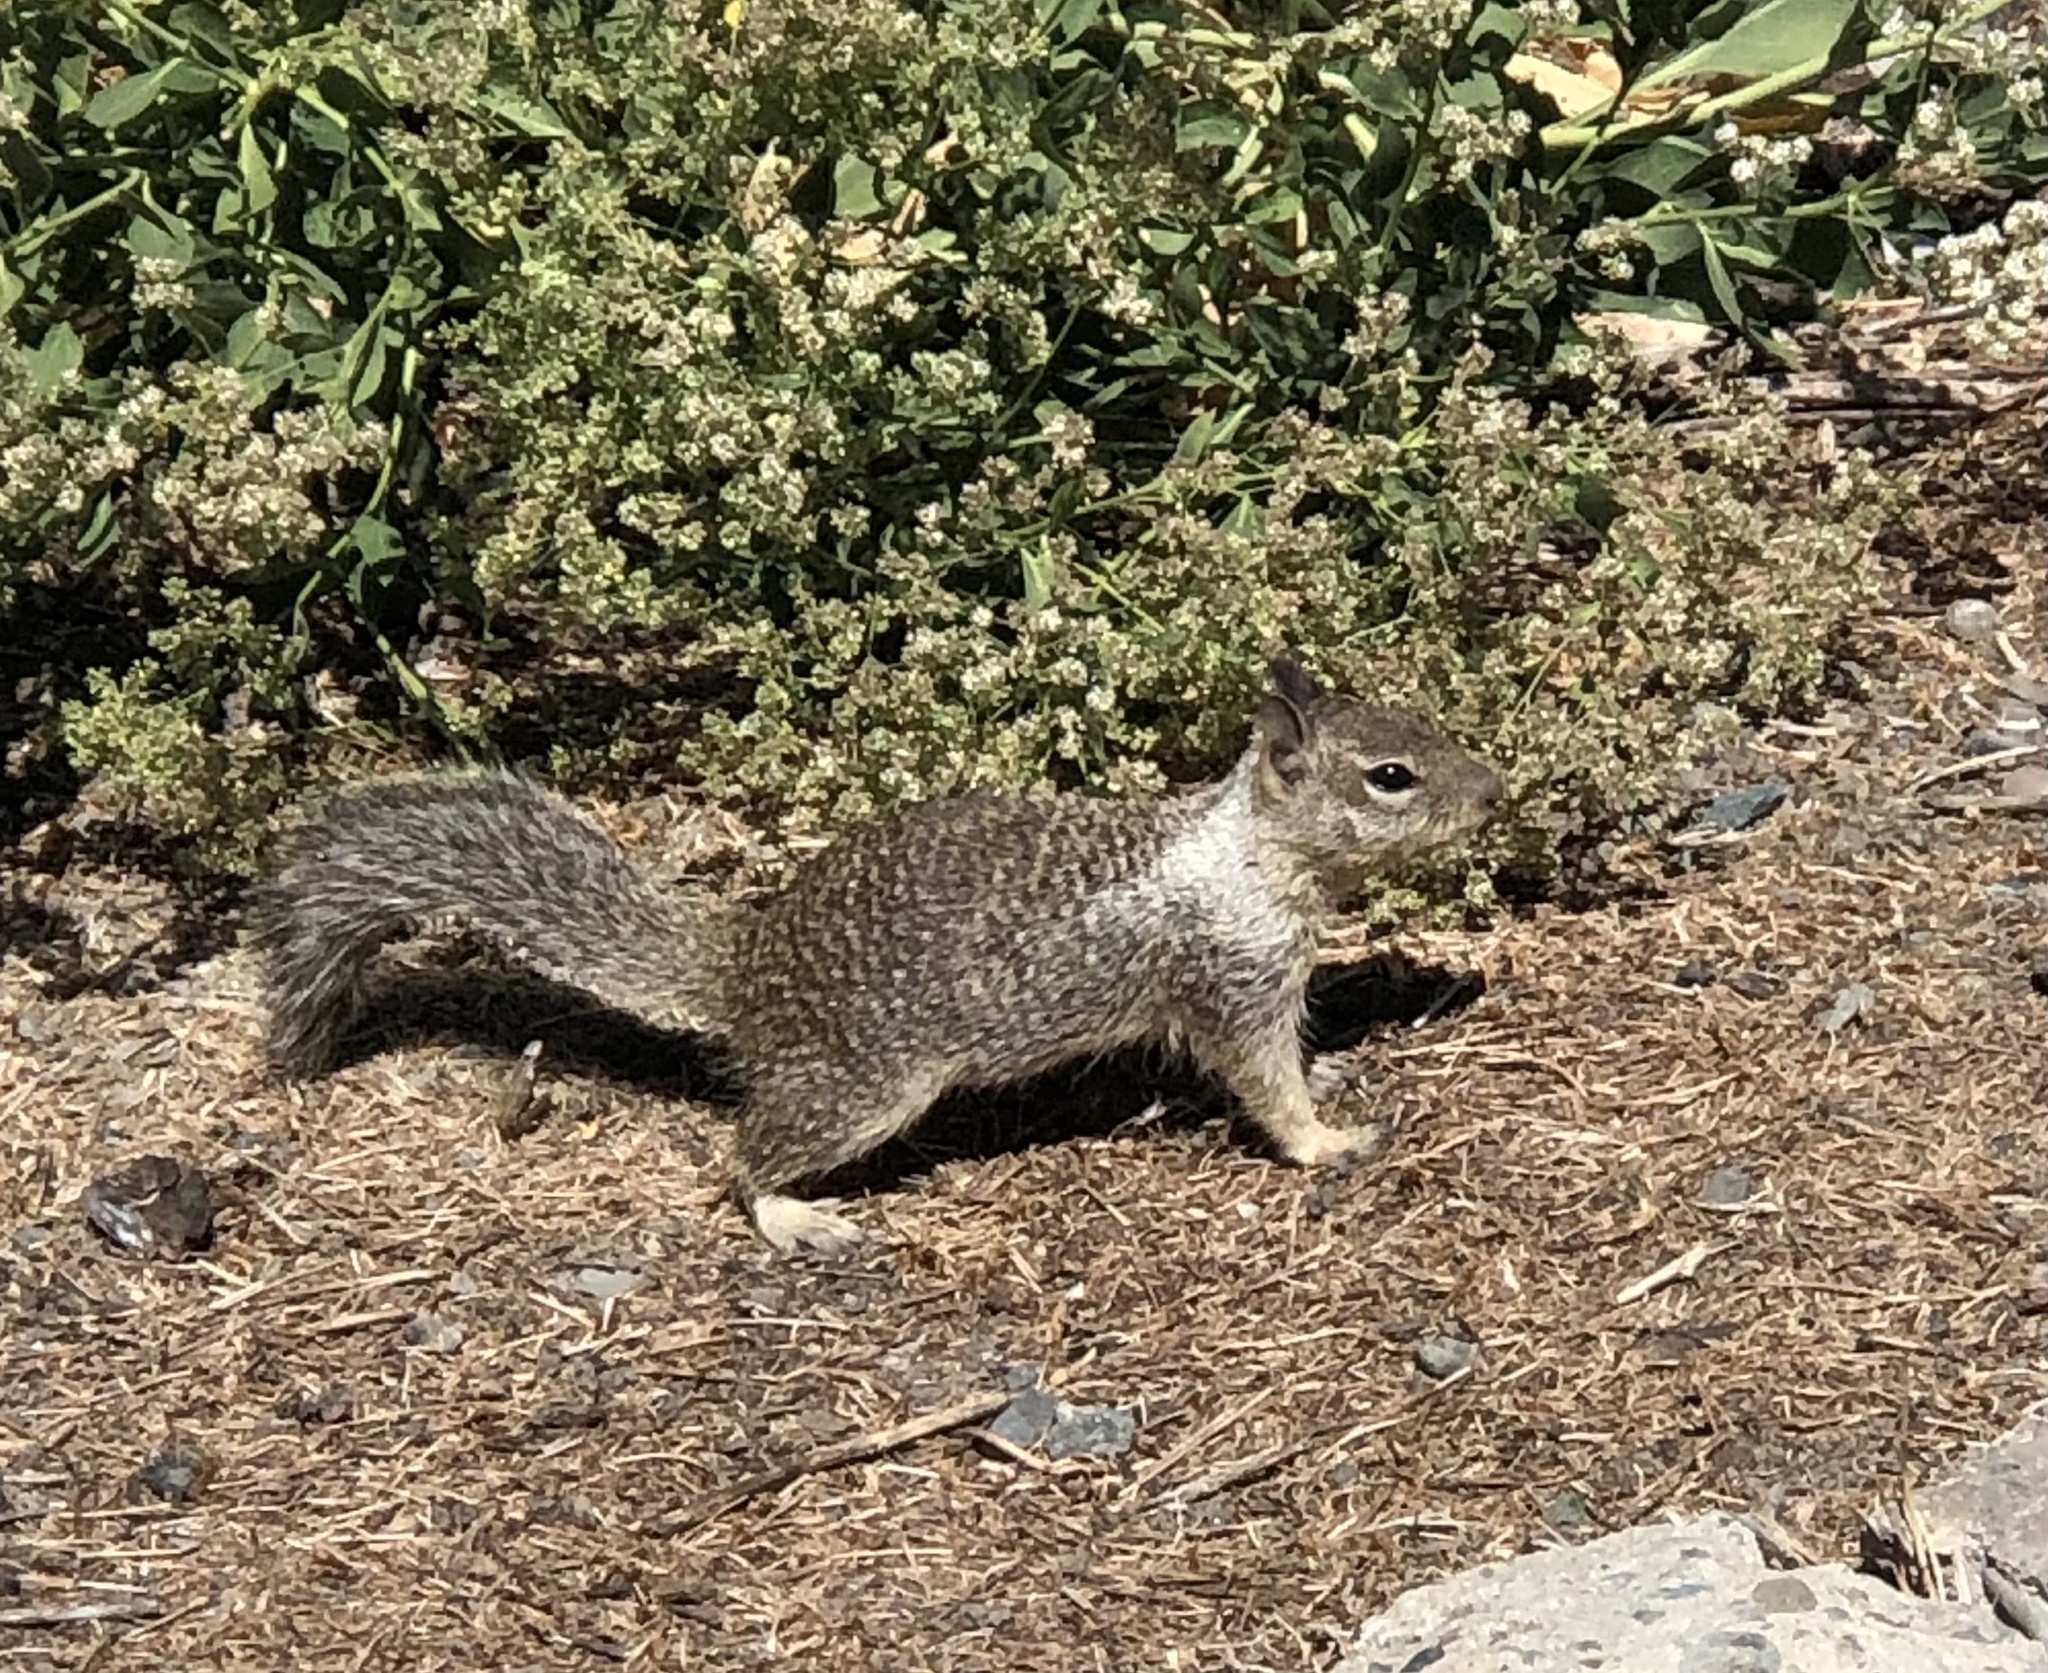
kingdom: Animalia
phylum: Chordata
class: Mammalia
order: Rodentia
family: Sciuridae
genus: Otospermophilus
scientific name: Otospermophilus beecheyi
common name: California ground squirrel
